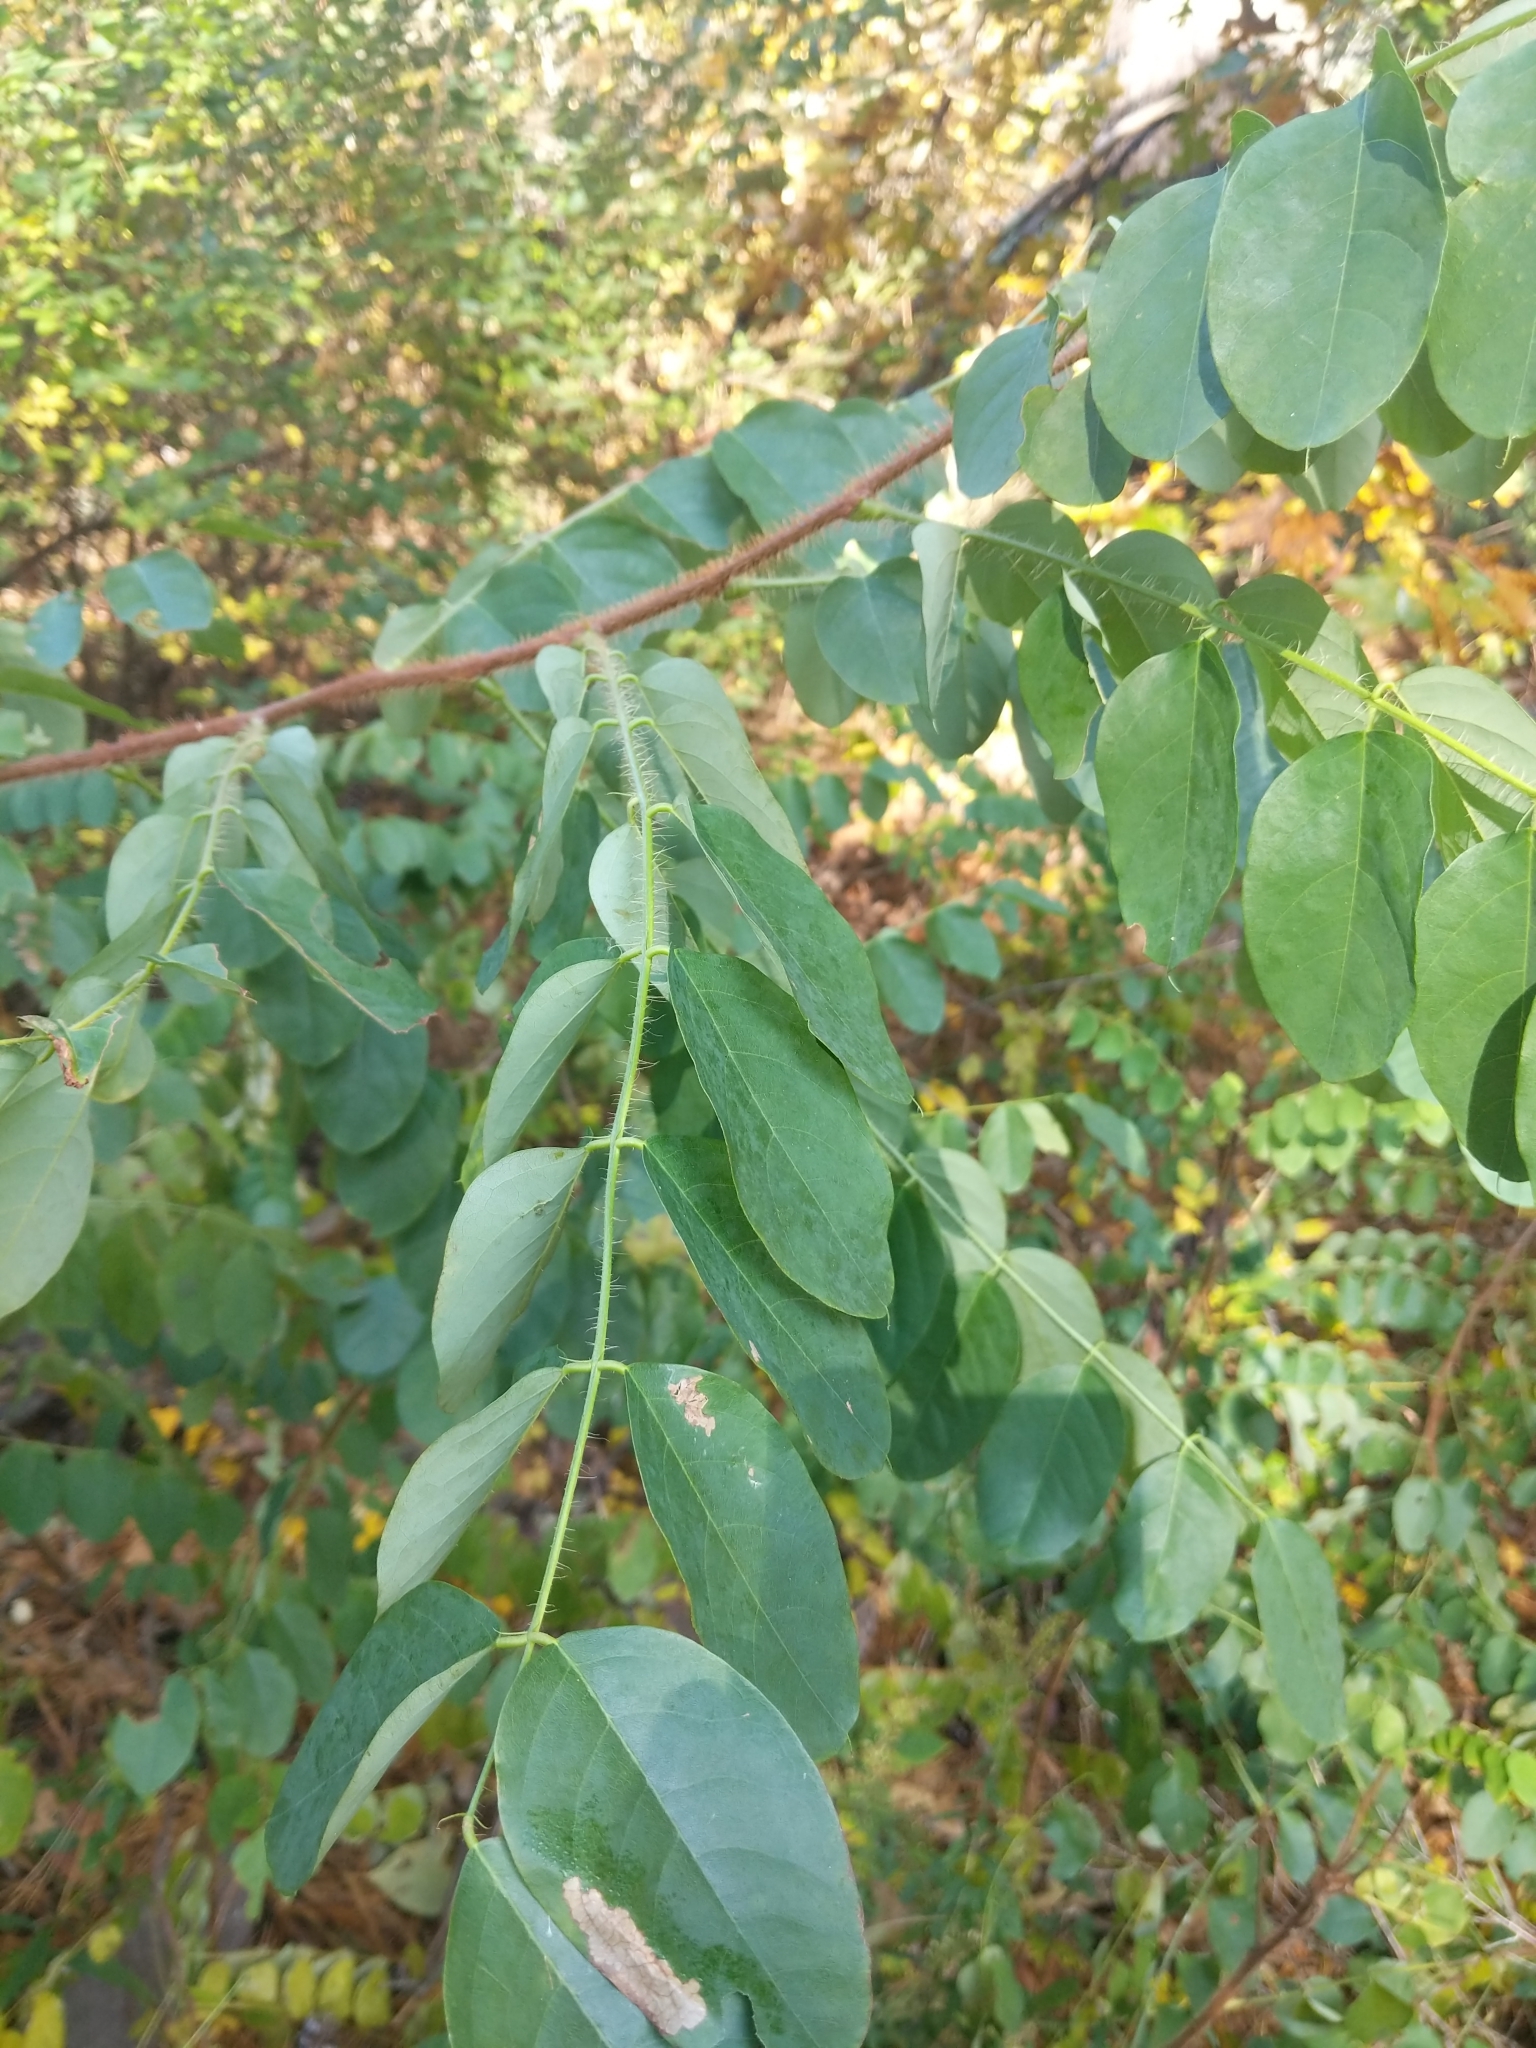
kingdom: Plantae
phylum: Tracheophyta
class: Magnoliopsida
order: Fabales
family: Fabaceae
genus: Robinia
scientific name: Robinia hispida
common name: Bristly locust
